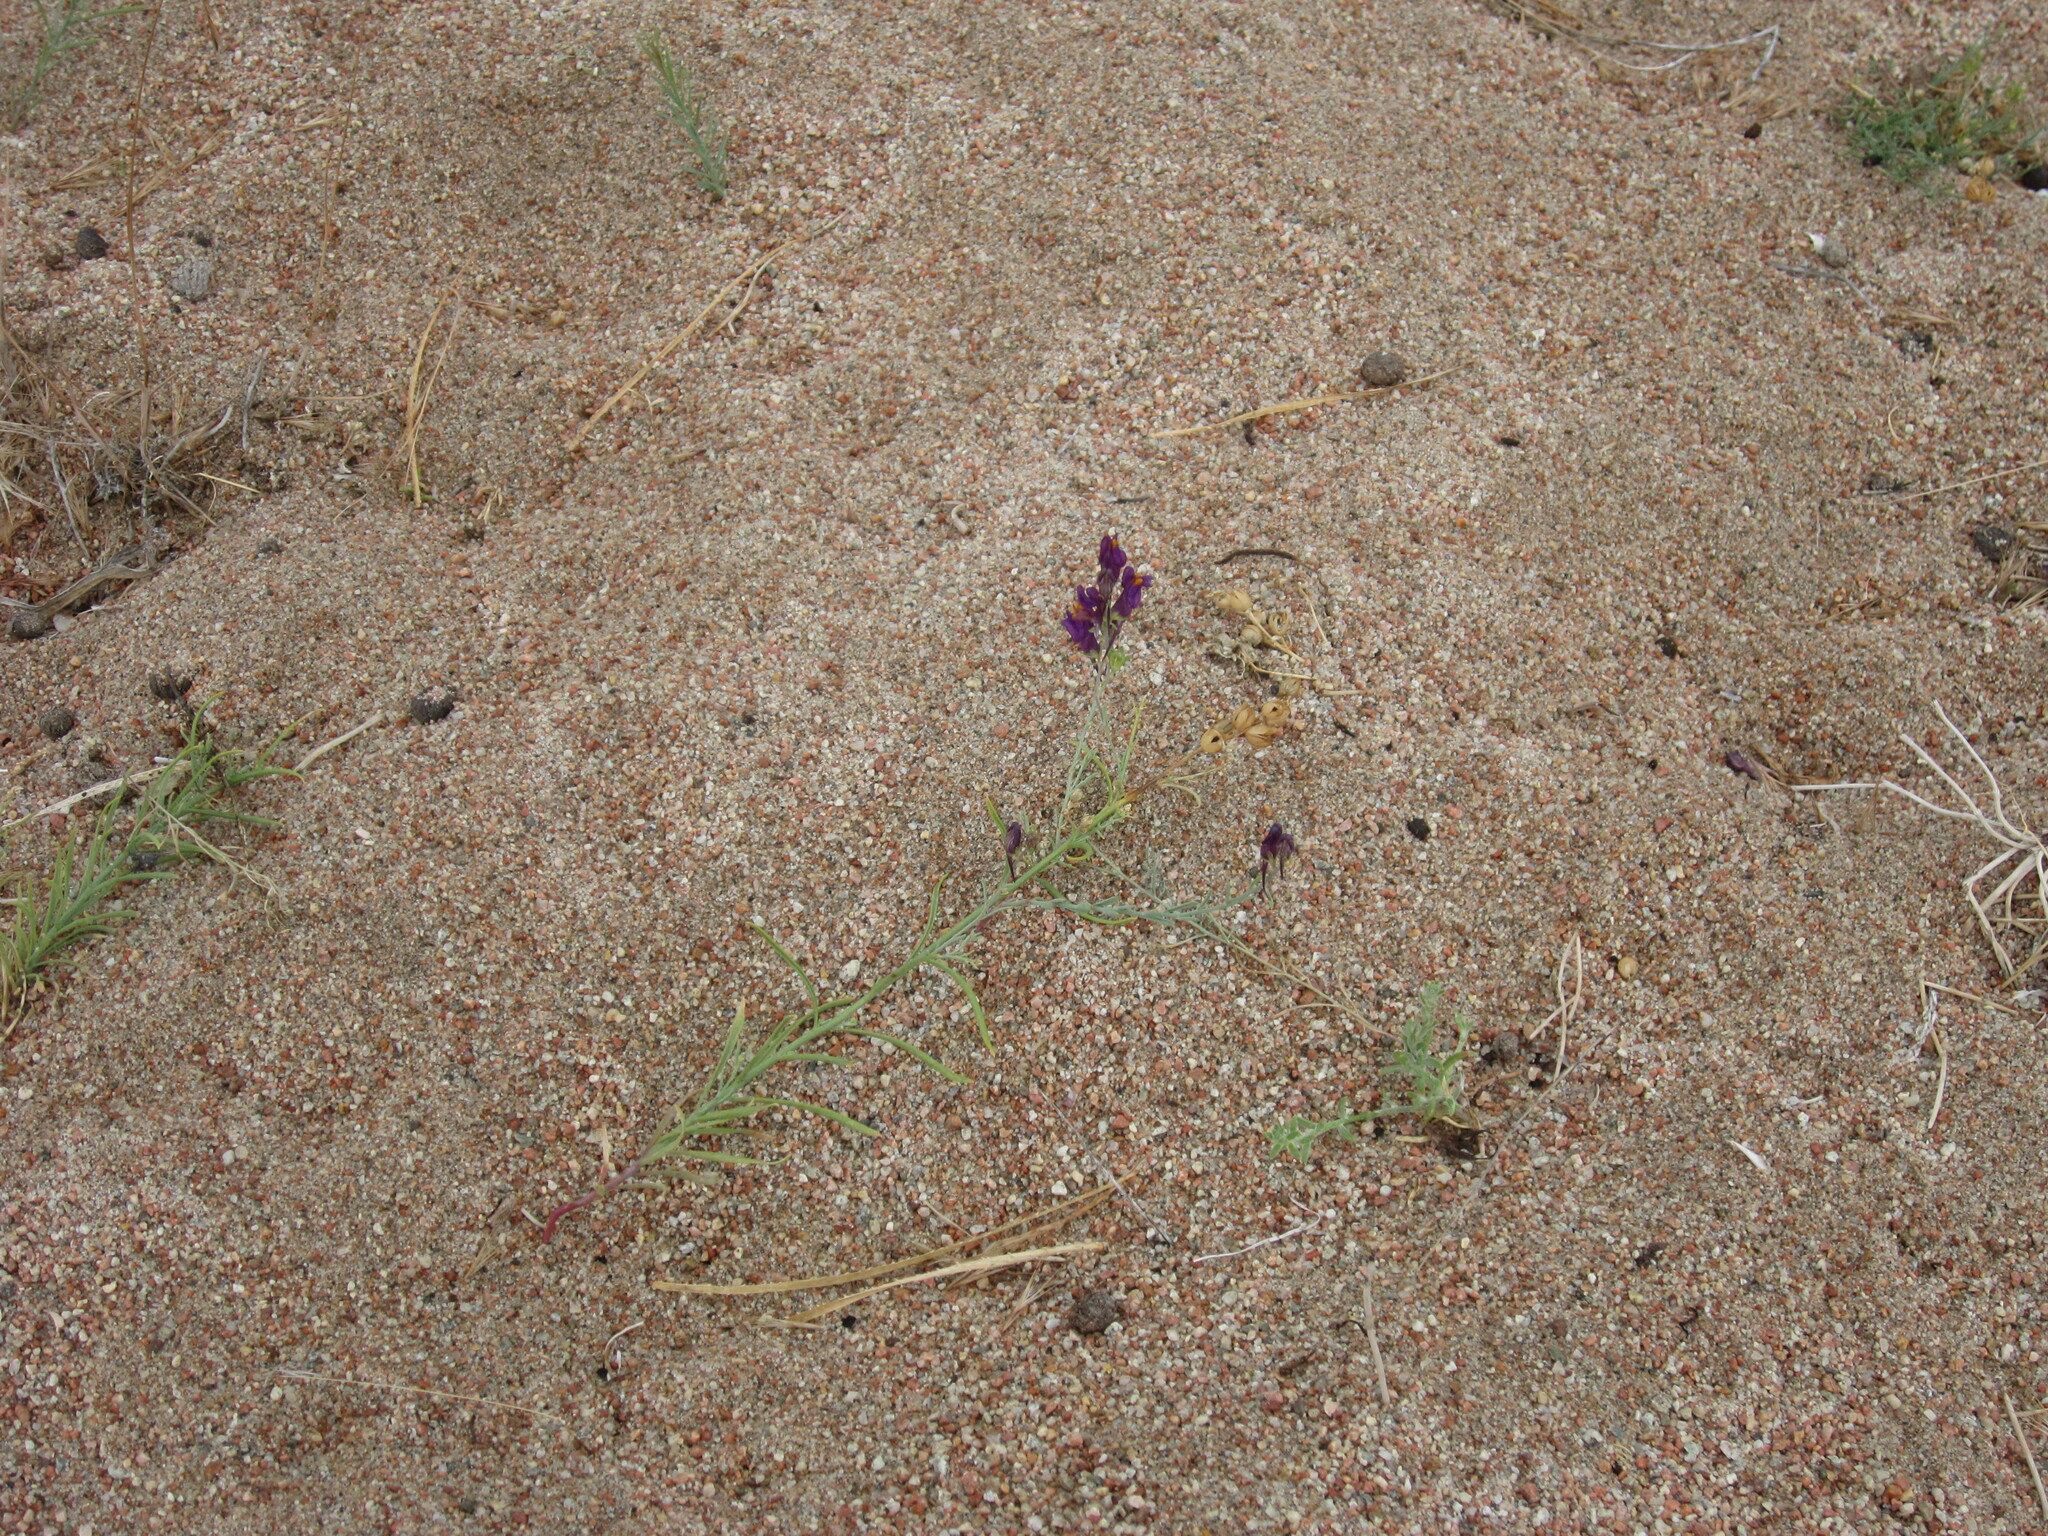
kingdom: Plantae
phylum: Tracheophyta
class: Magnoliopsida
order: Lamiales
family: Plantaginaceae
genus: Linaria
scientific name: Linaria bungei
